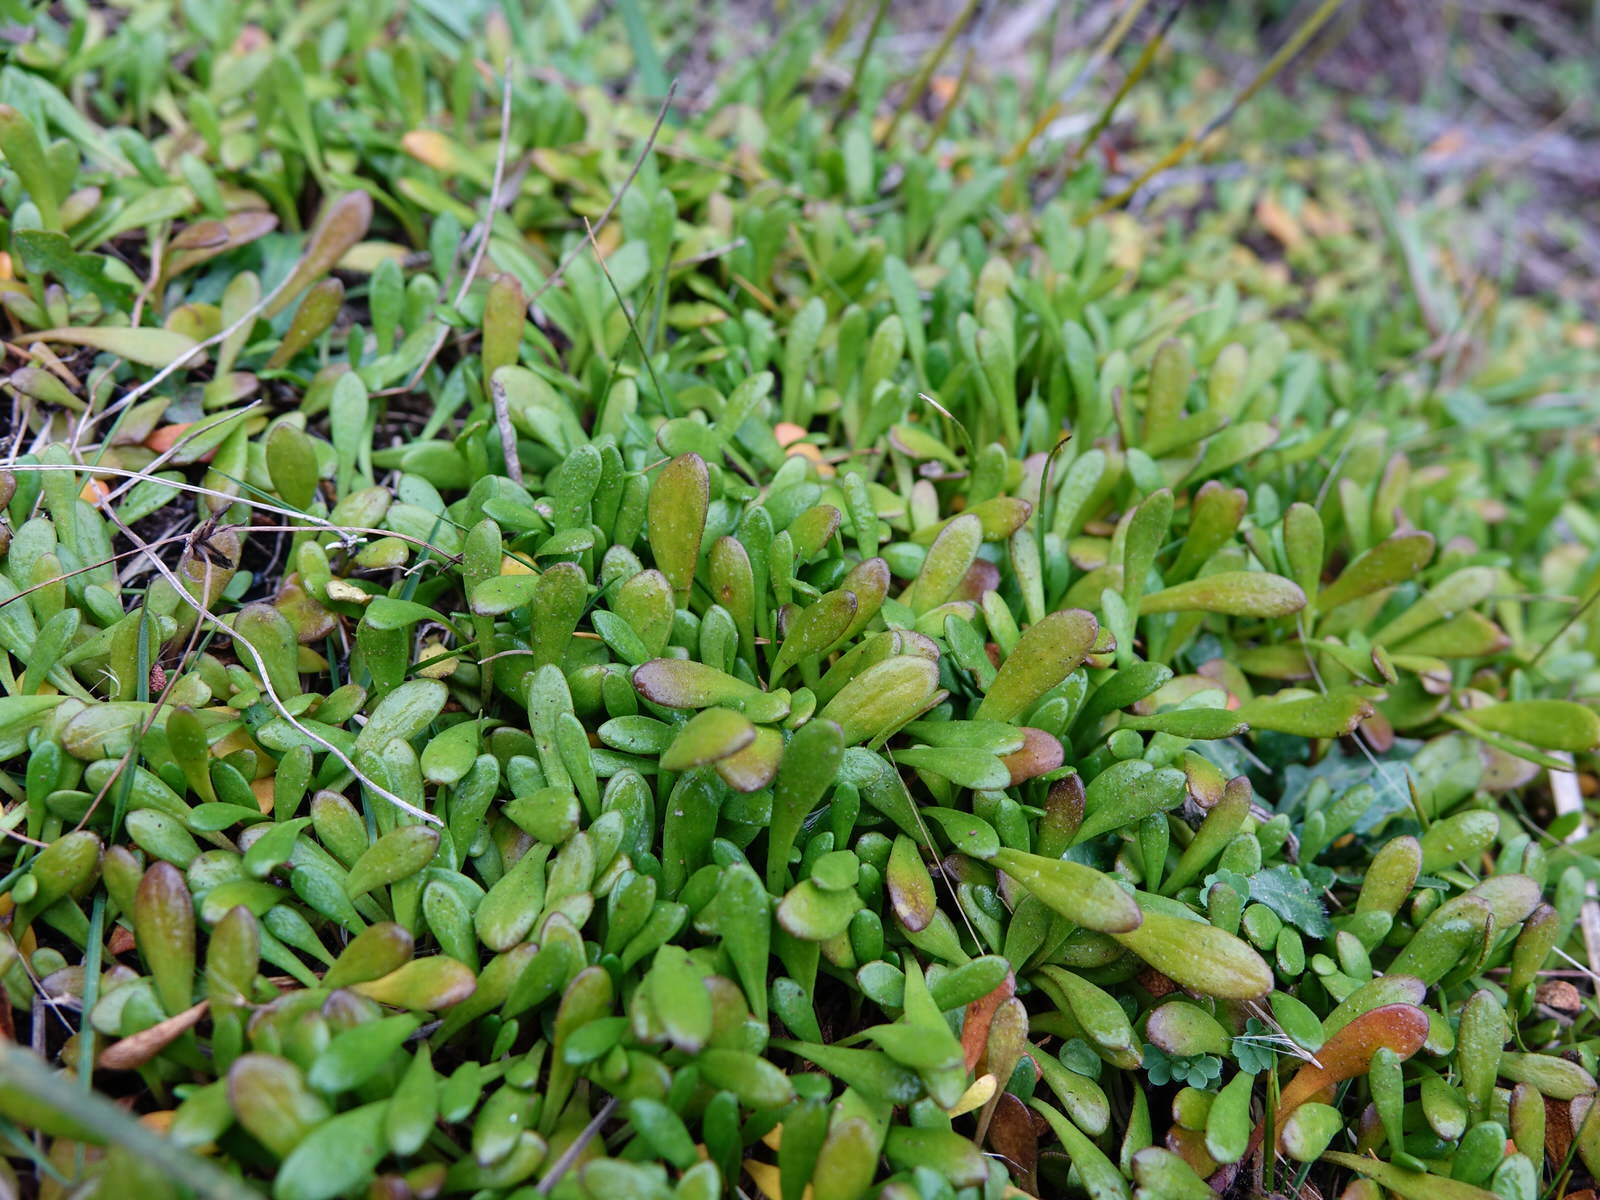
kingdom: Plantae
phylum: Tracheophyta
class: Magnoliopsida
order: Asterales
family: Goodeniaceae
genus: Goodenia
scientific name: Goodenia radicans
